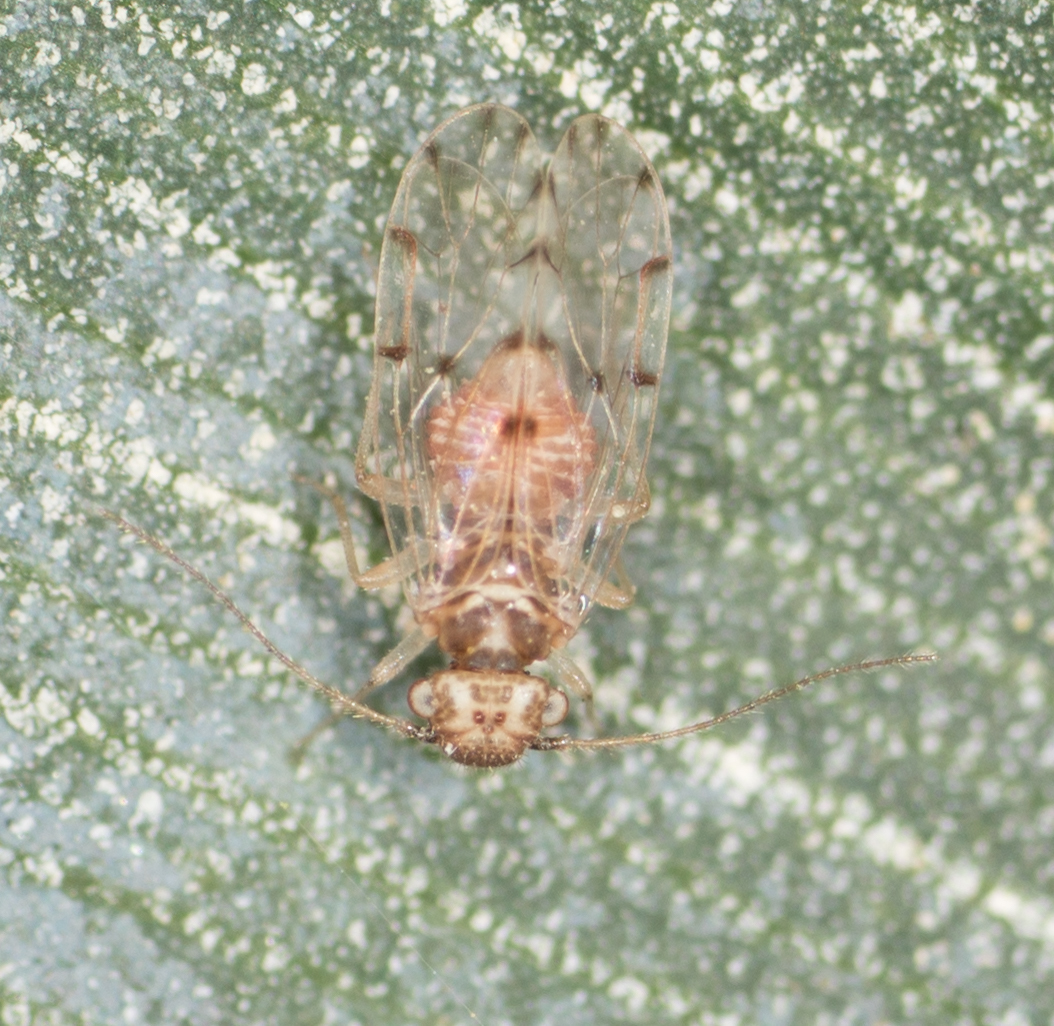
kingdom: Animalia
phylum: Arthropoda
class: Insecta
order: Psocodea
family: Ectopsocidae
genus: Ectopsocus
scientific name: Ectopsocus californicus
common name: Bark lice
